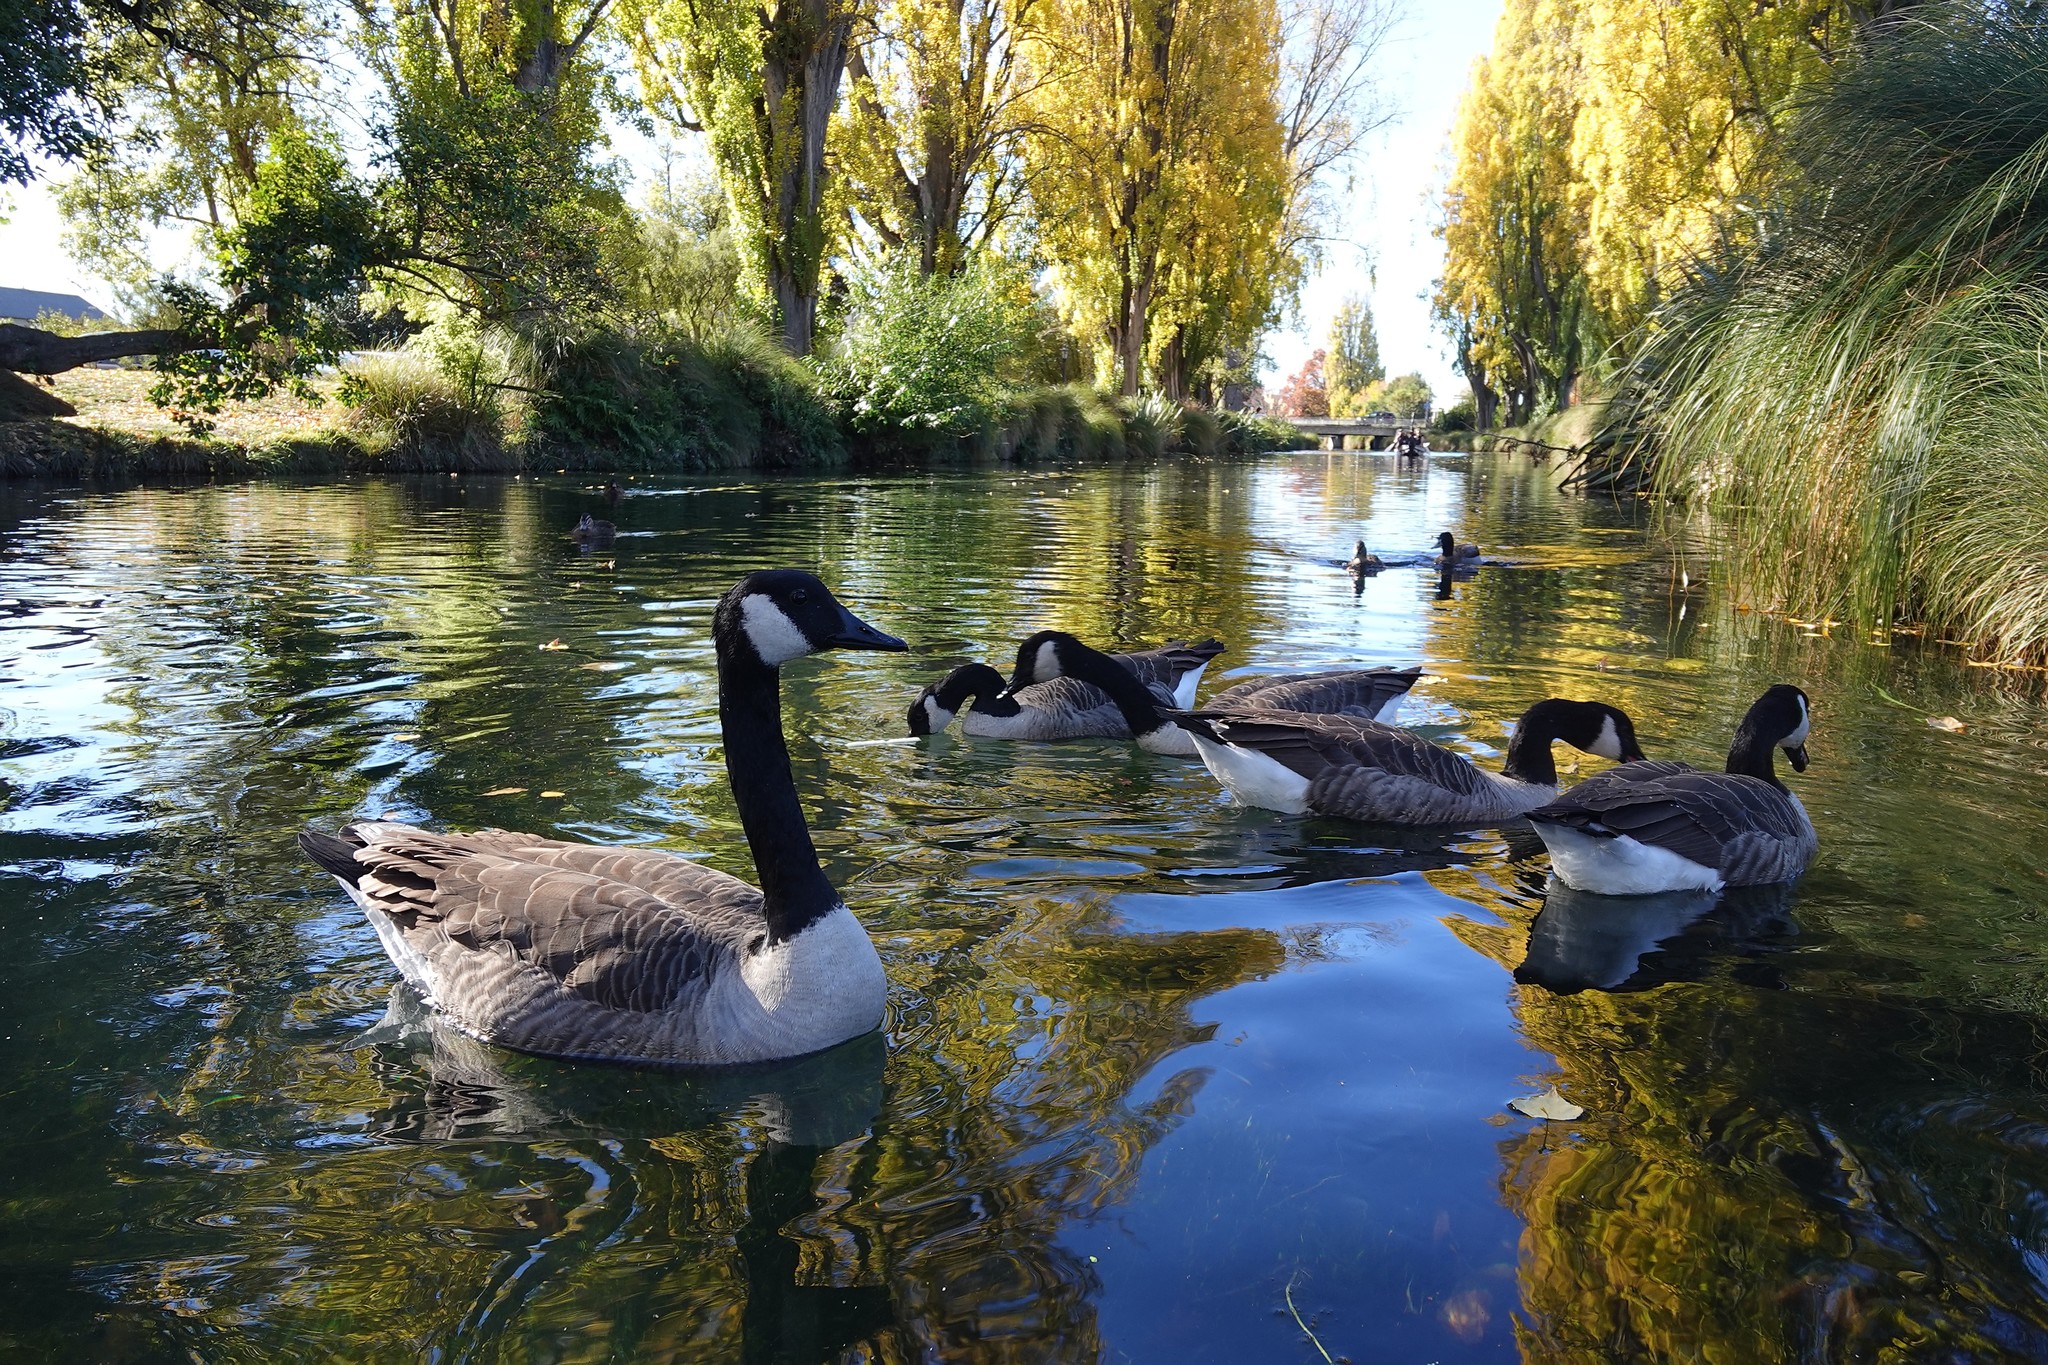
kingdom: Animalia
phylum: Chordata
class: Aves
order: Anseriformes
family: Anatidae
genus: Branta
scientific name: Branta canadensis
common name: Canada goose
